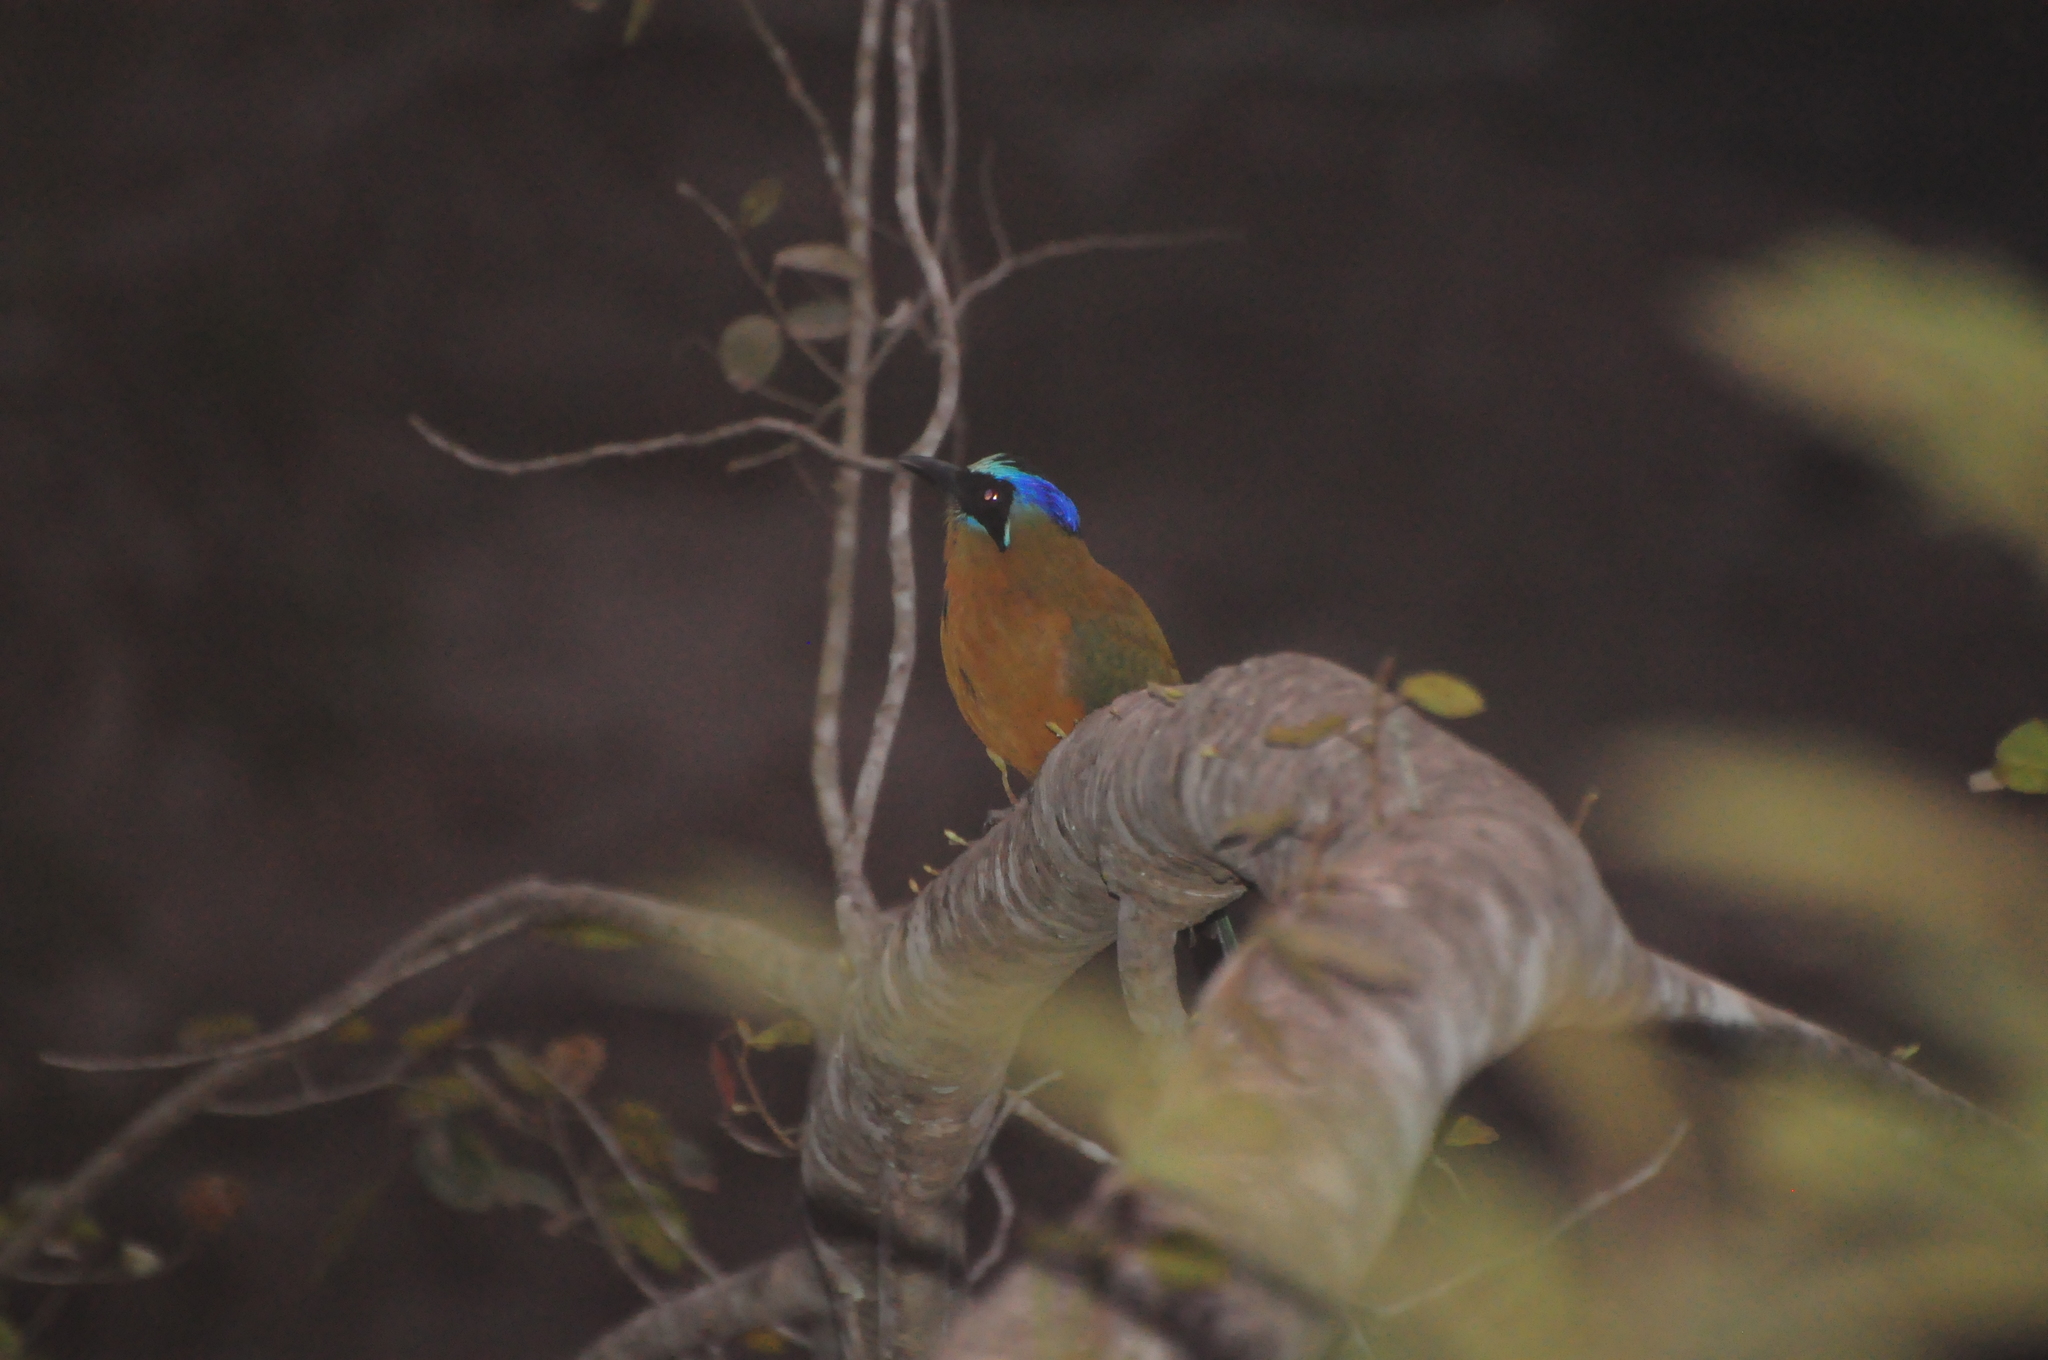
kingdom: Animalia
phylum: Chordata
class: Aves
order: Coraciiformes
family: Momotidae
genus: Momotus
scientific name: Momotus momota
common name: Amazonian motmot
